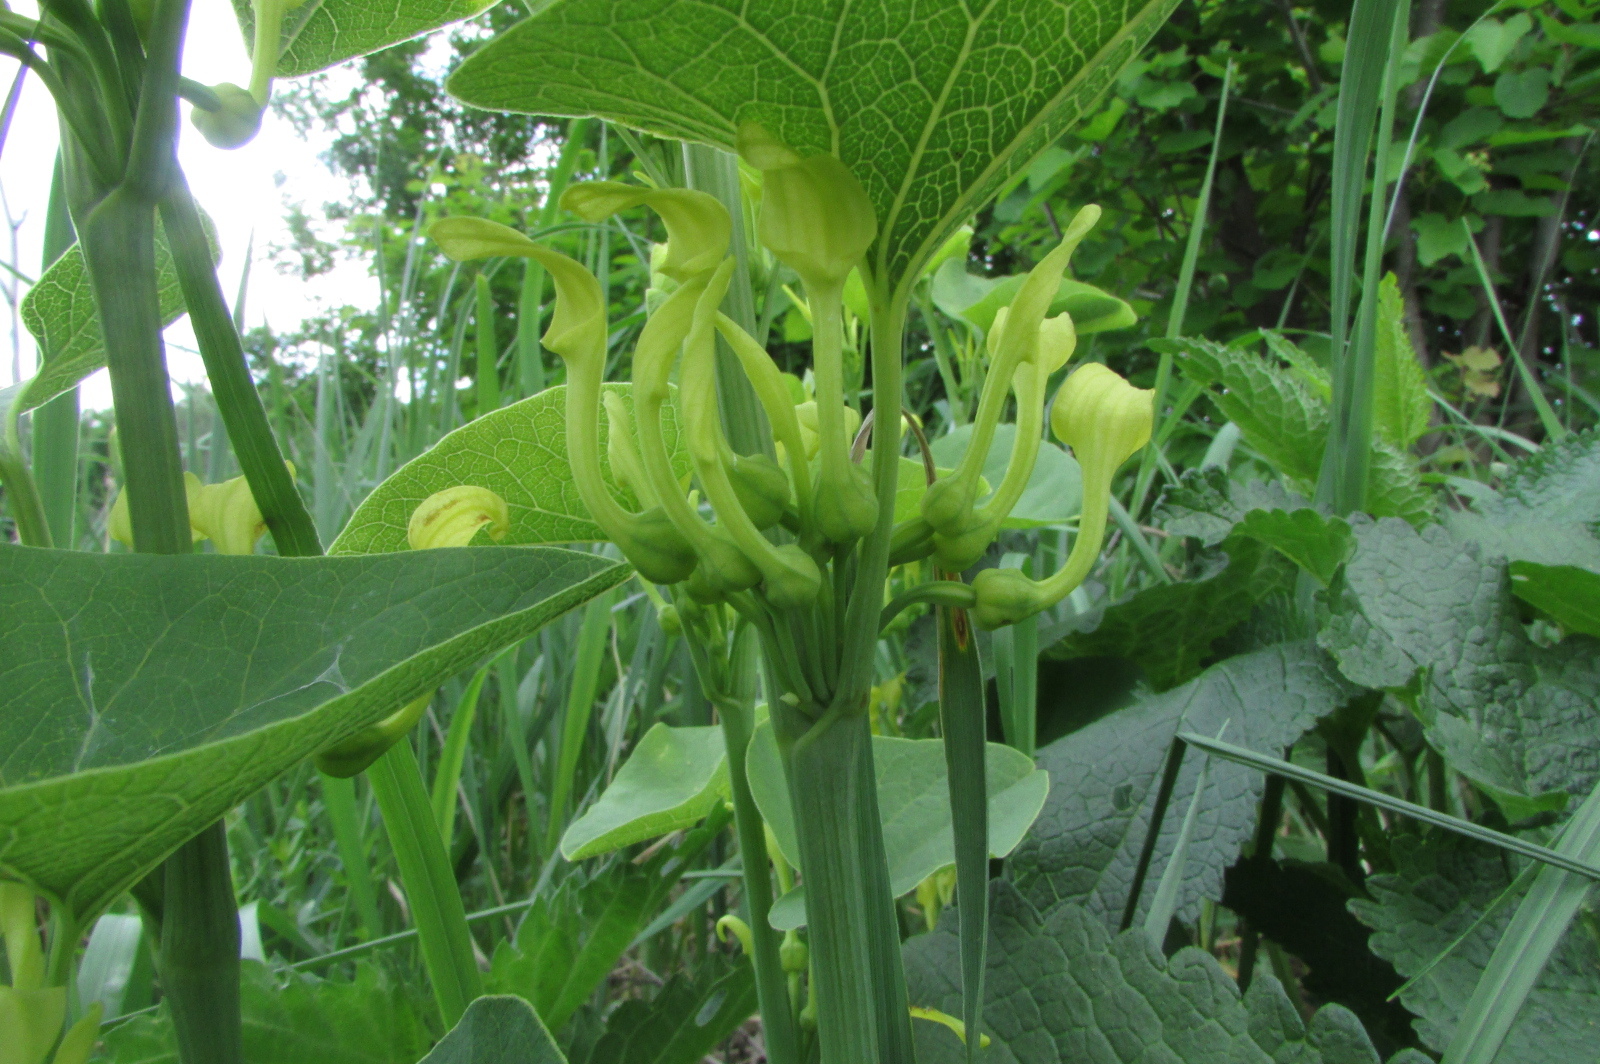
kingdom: Plantae
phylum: Tracheophyta
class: Magnoliopsida
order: Piperales
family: Aristolochiaceae
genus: Aristolochia
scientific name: Aristolochia clematitis
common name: Birthwort
